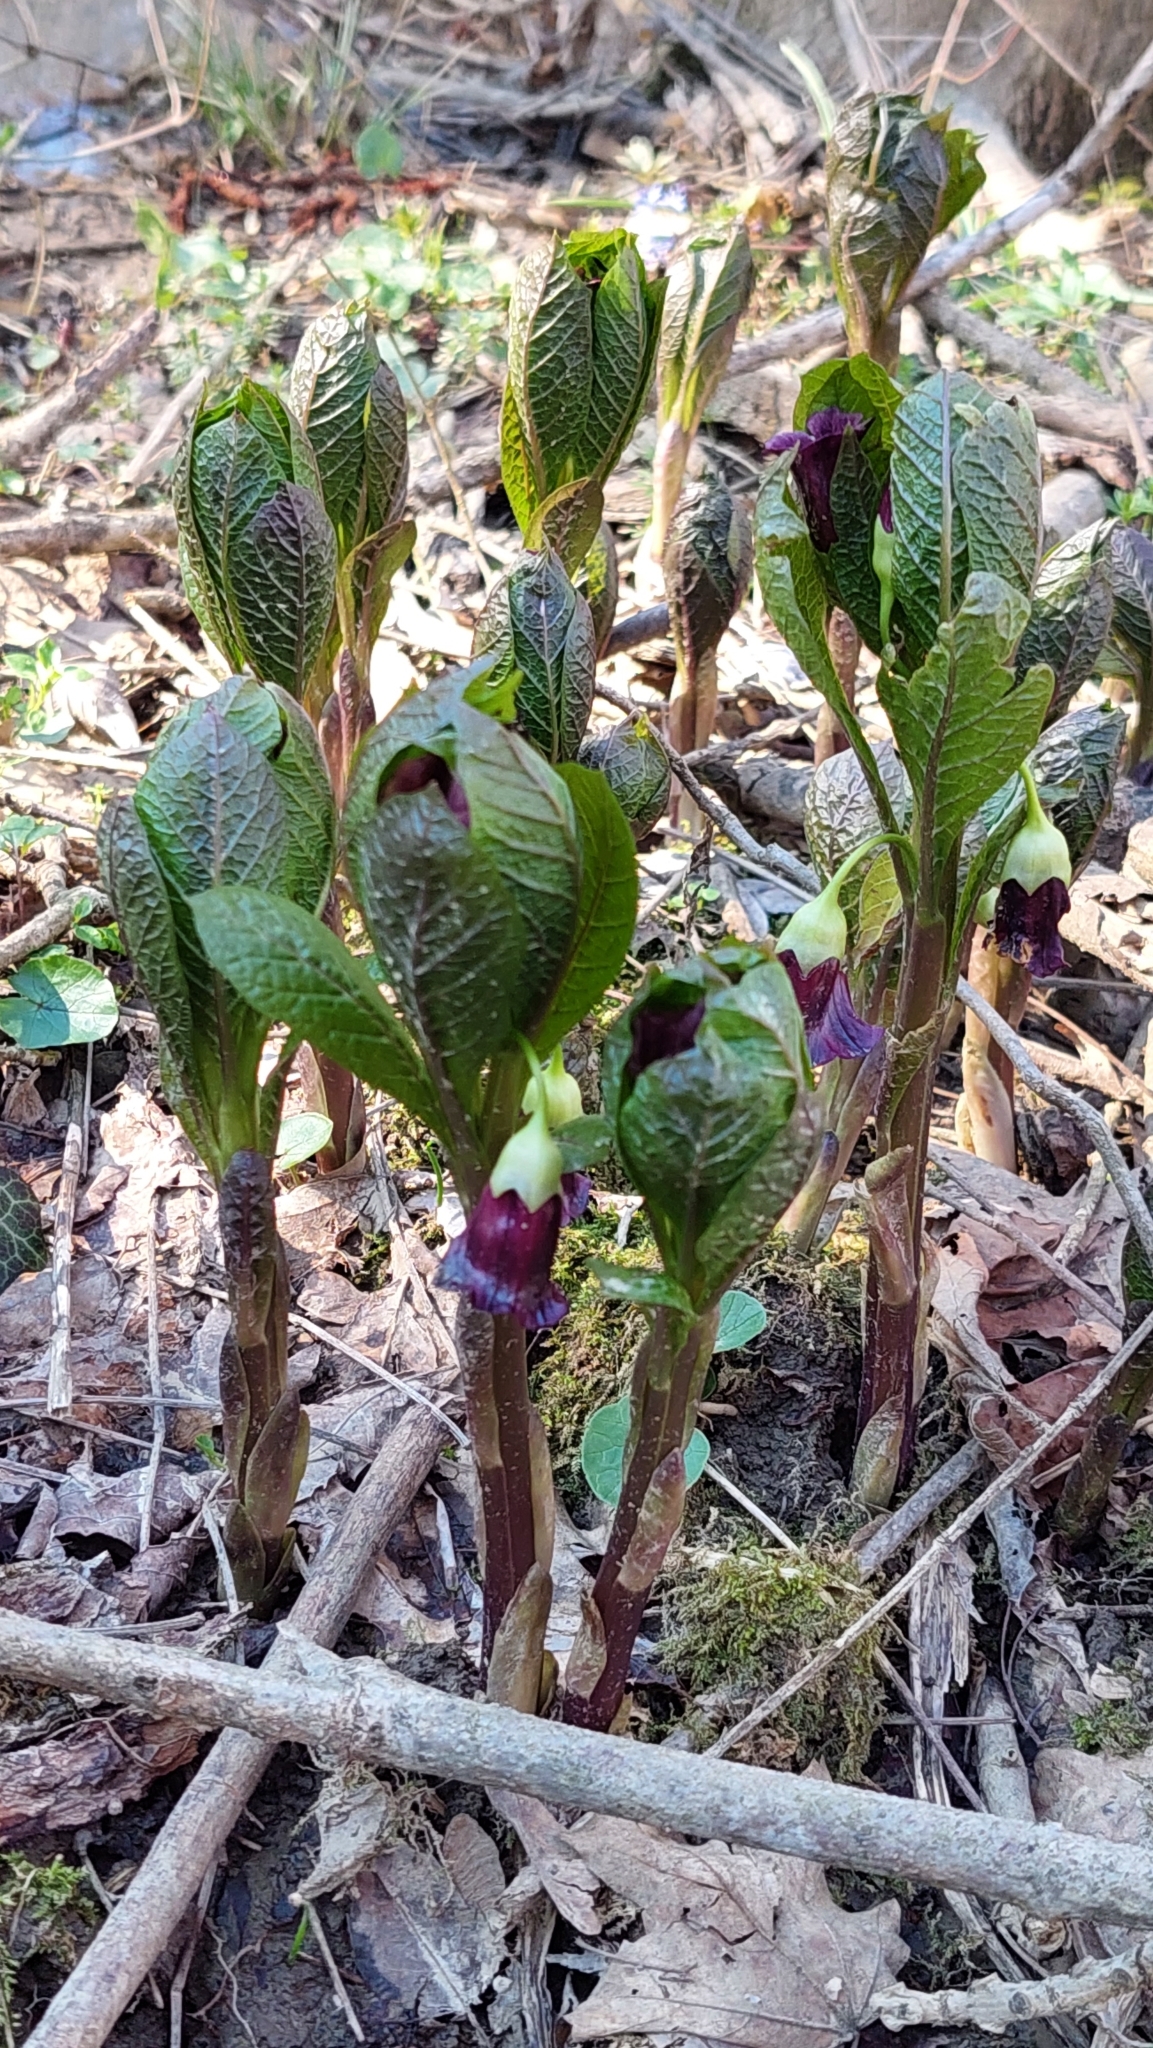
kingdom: Plantae
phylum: Tracheophyta
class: Magnoliopsida
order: Solanales
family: Solanaceae
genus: Scopolia
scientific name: Scopolia carniolica
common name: Scopolia
